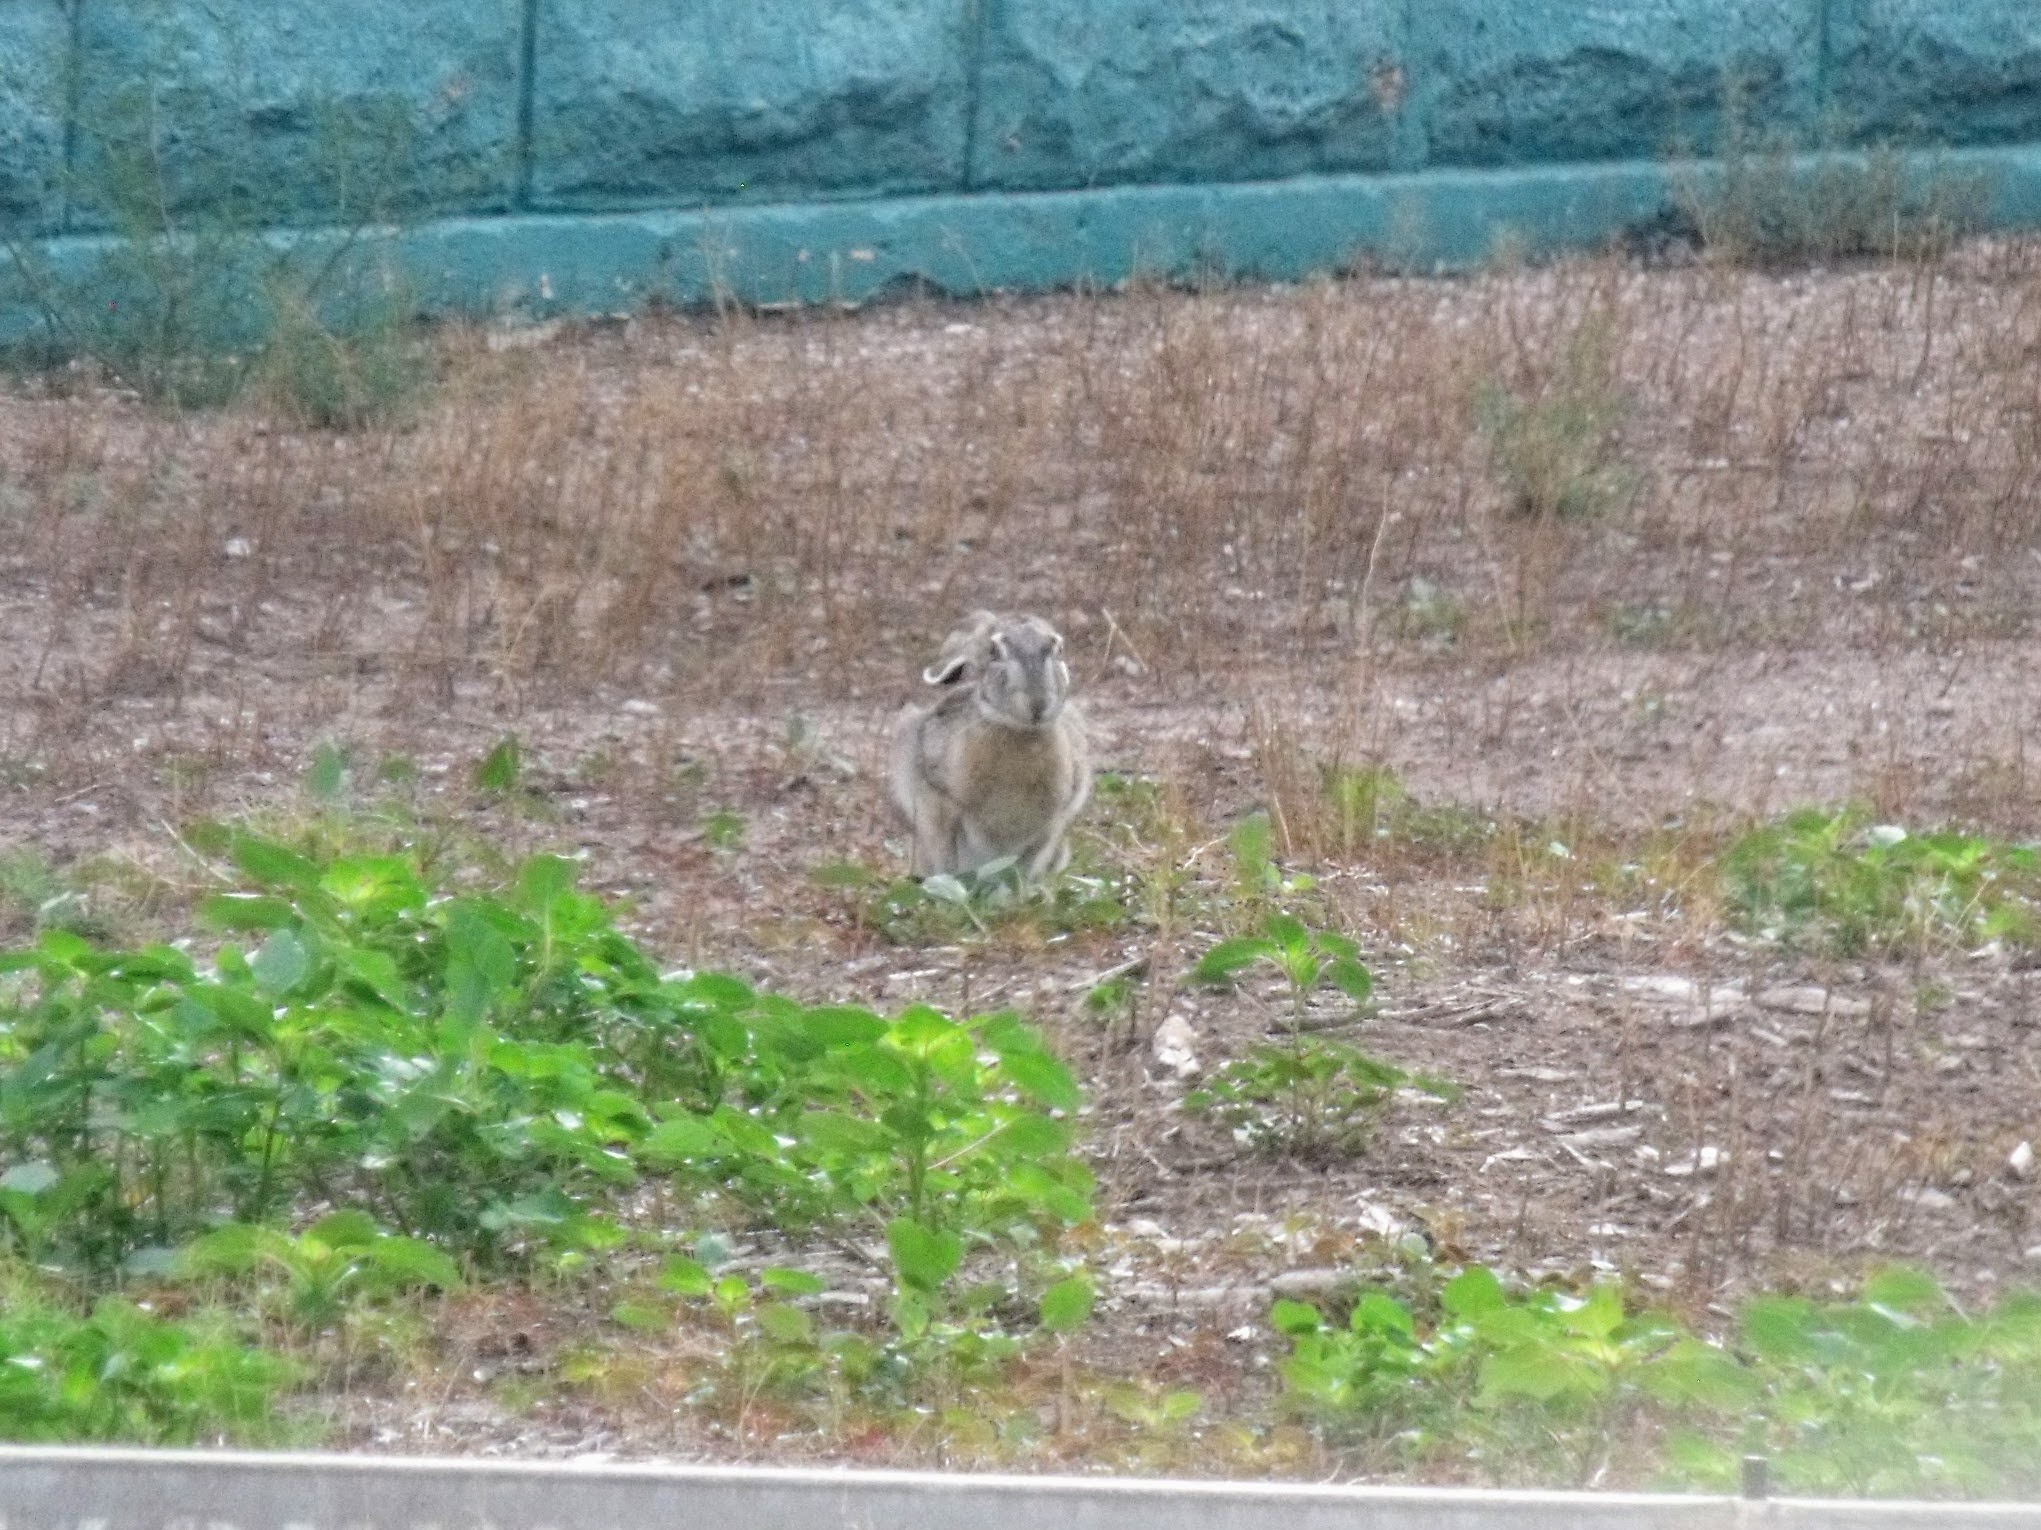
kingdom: Animalia
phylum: Chordata
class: Mammalia
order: Lagomorpha
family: Leporidae
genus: Lepus
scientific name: Lepus californicus
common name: Black-tailed jackrabbit
